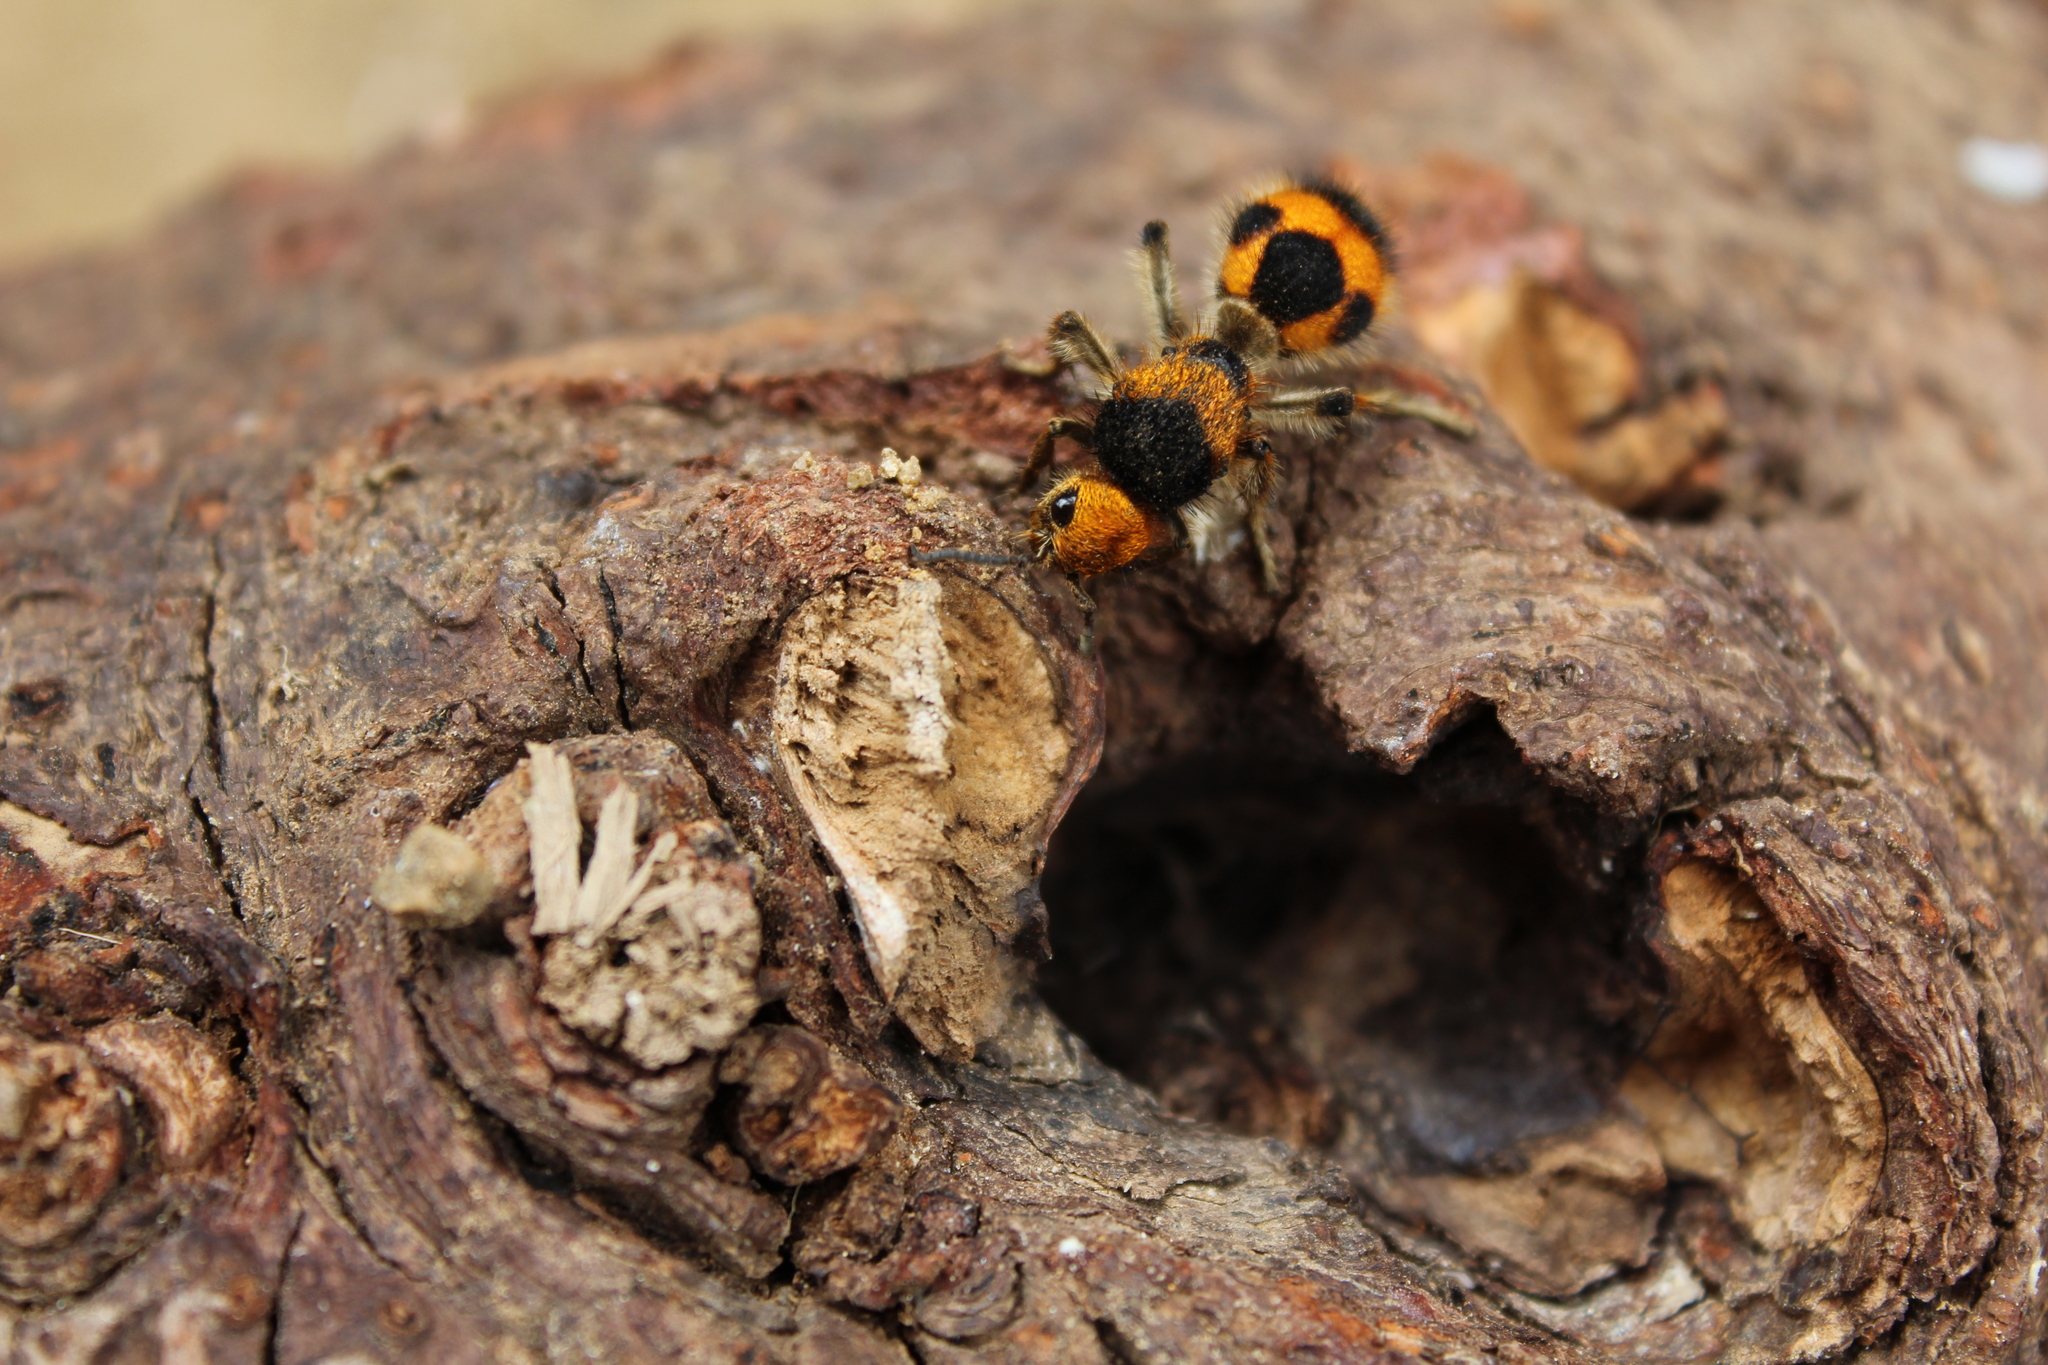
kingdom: Animalia
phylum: Arthropoda
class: Insecta
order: Hymenoptera
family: Mutillidae
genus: Dasymutilla
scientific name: Dasymutilla pulchra
